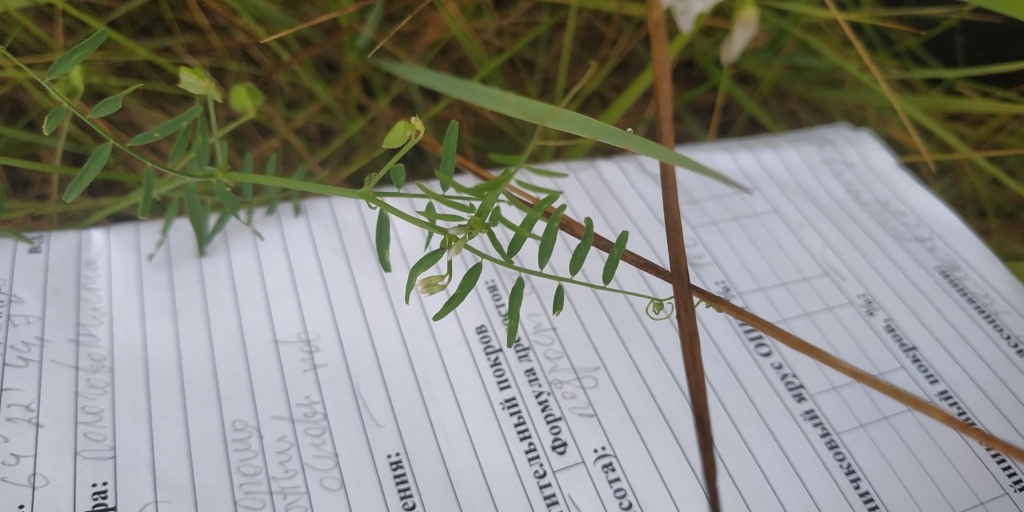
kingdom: Plantae
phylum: Tracheophyta
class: Magnoliopsida
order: Fabales
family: Fabaceae
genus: Vicia
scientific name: Vicia tetrasperma
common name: Smooth tare
